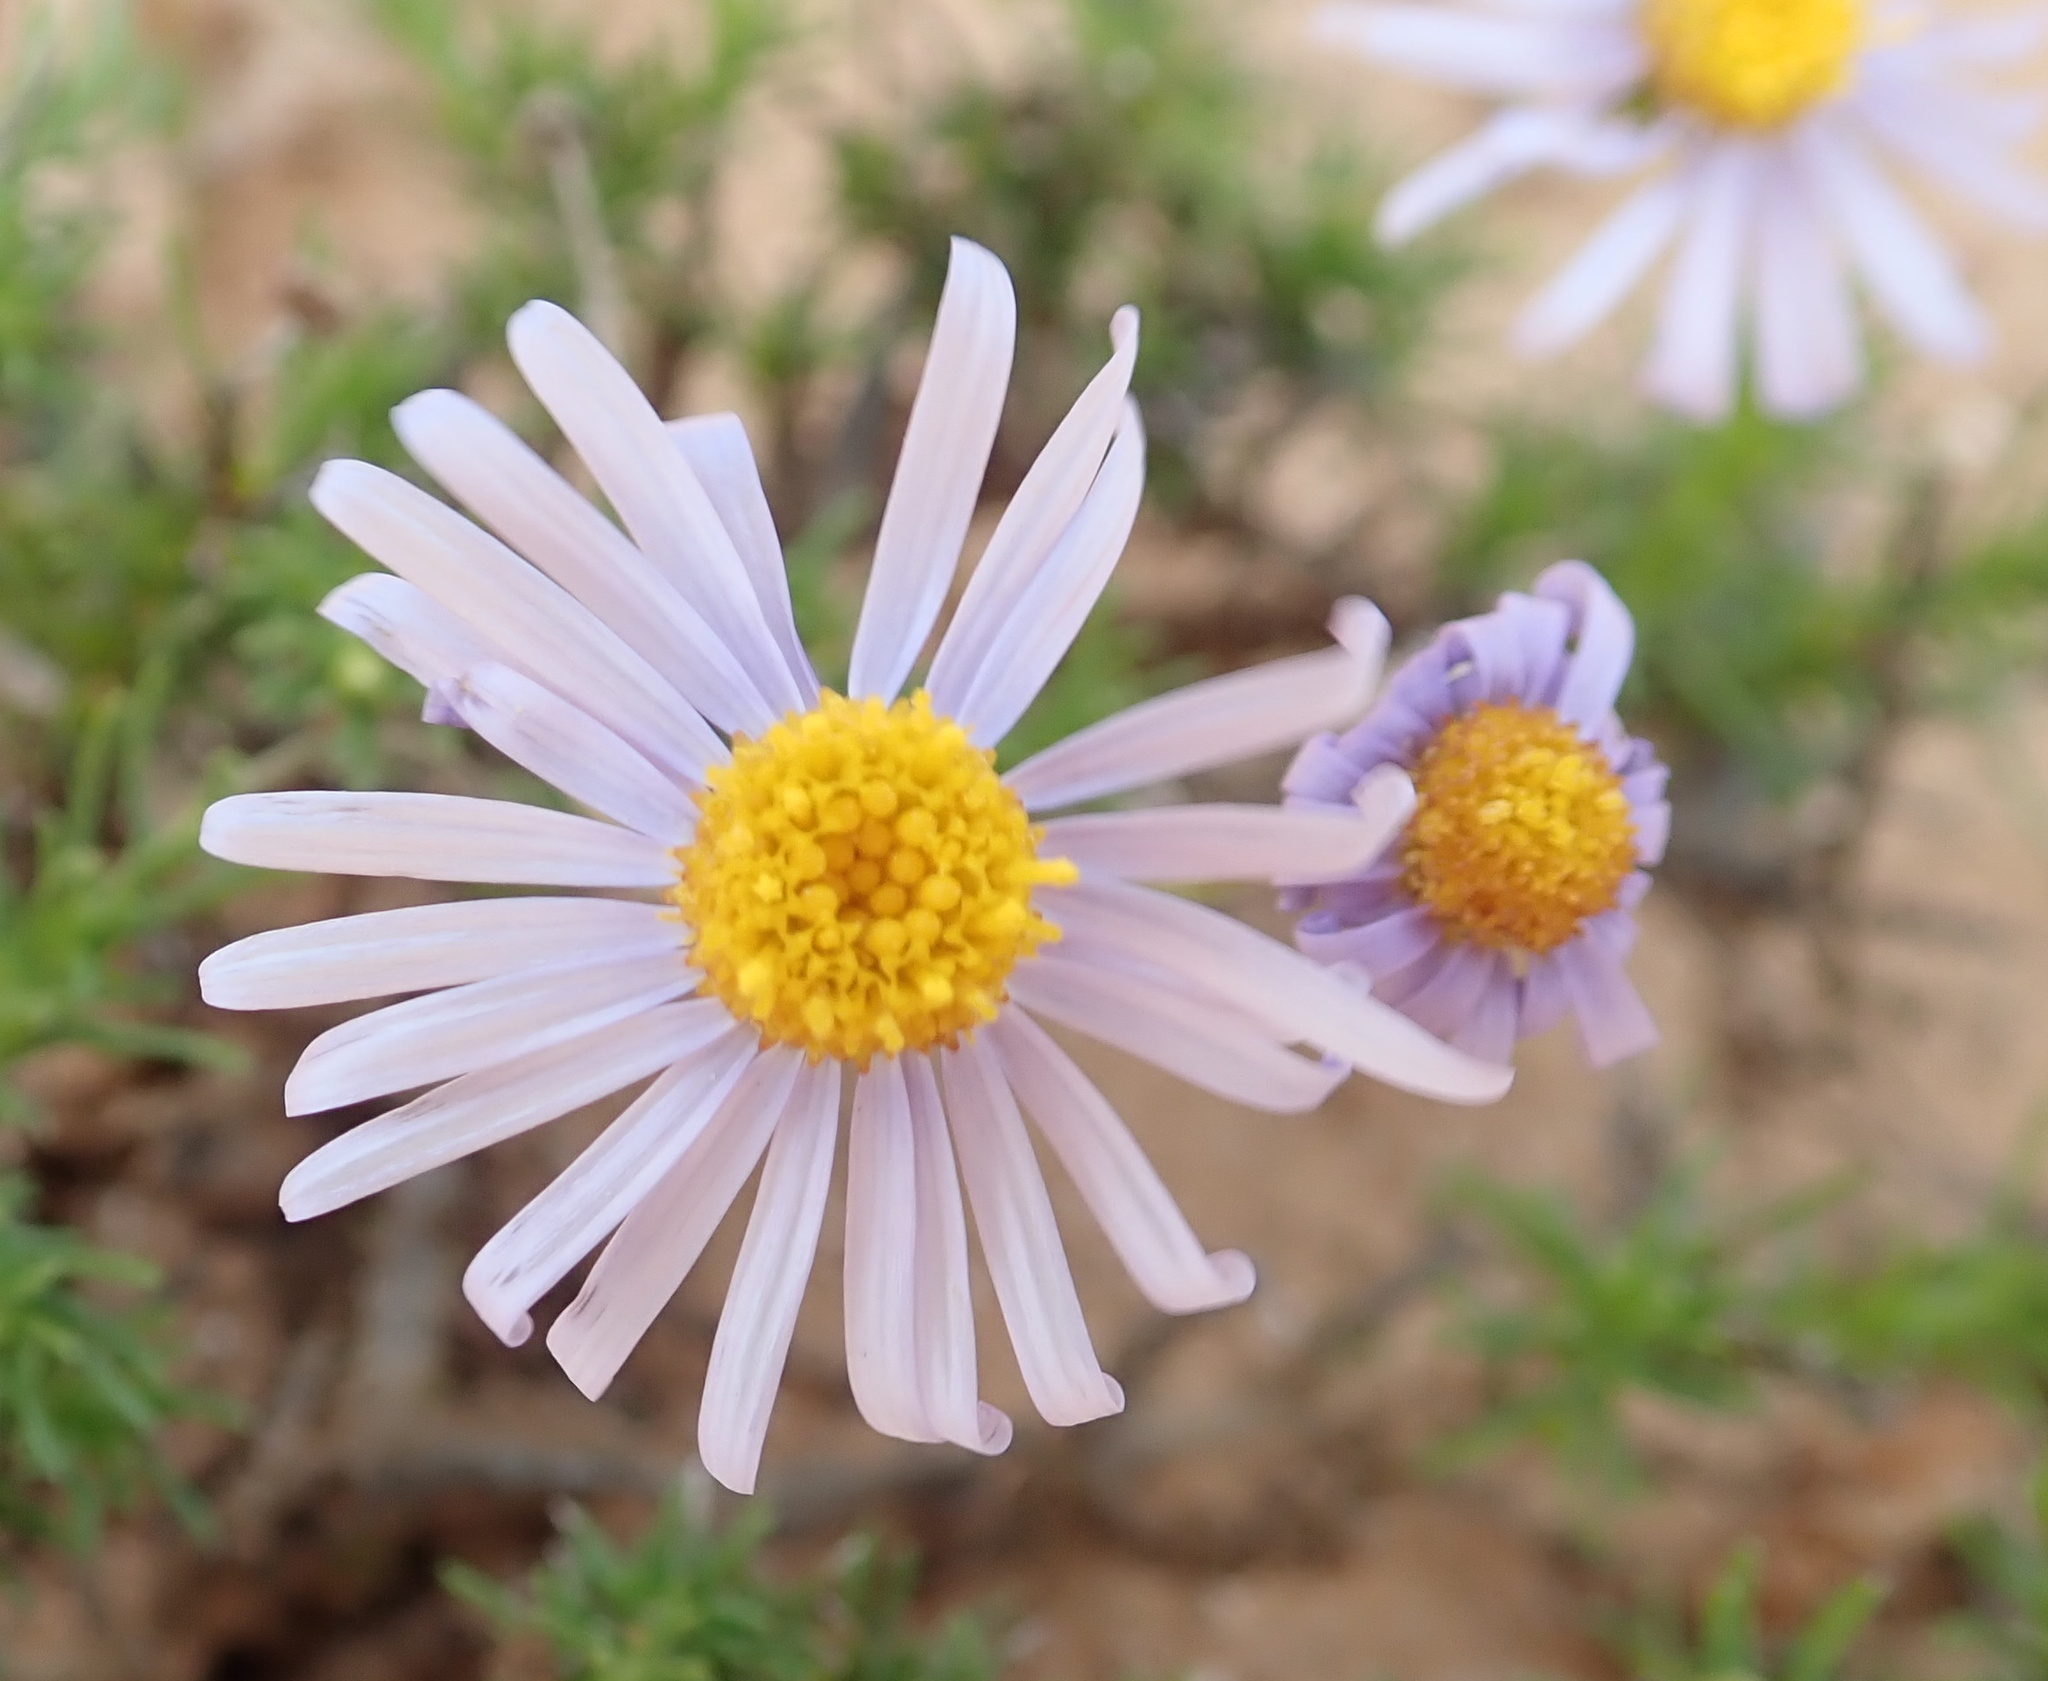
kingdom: Plantae
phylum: Tracheophyta
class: Magnoliopsida
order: Asterales
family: Asteraceae
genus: Felicia
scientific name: Felicia muricata
